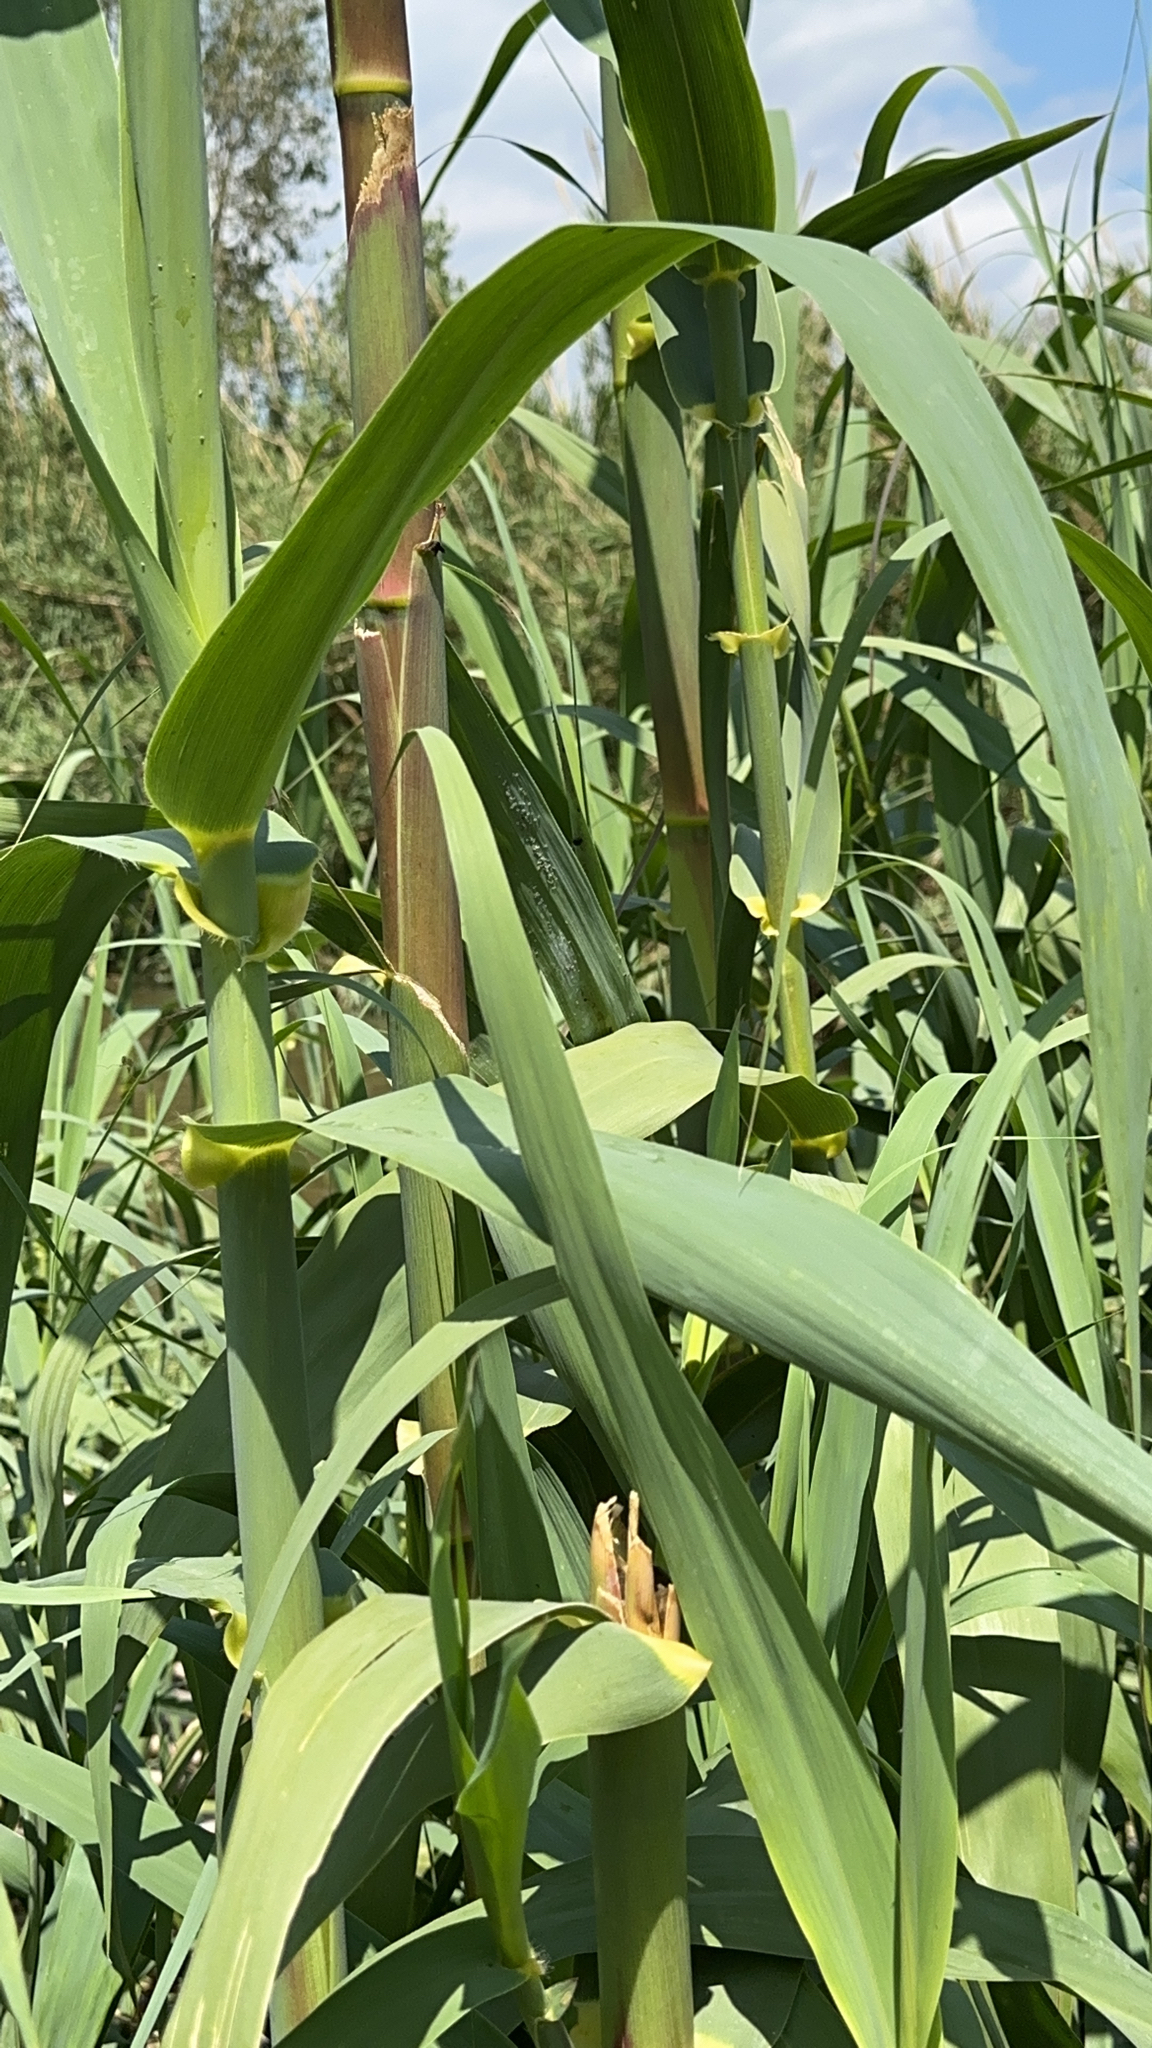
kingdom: Plantae
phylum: Tracheophyta
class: Liliopsida
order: Poales
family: Poaceae
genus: Arundo
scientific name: Arundo donax
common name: Giant reed
